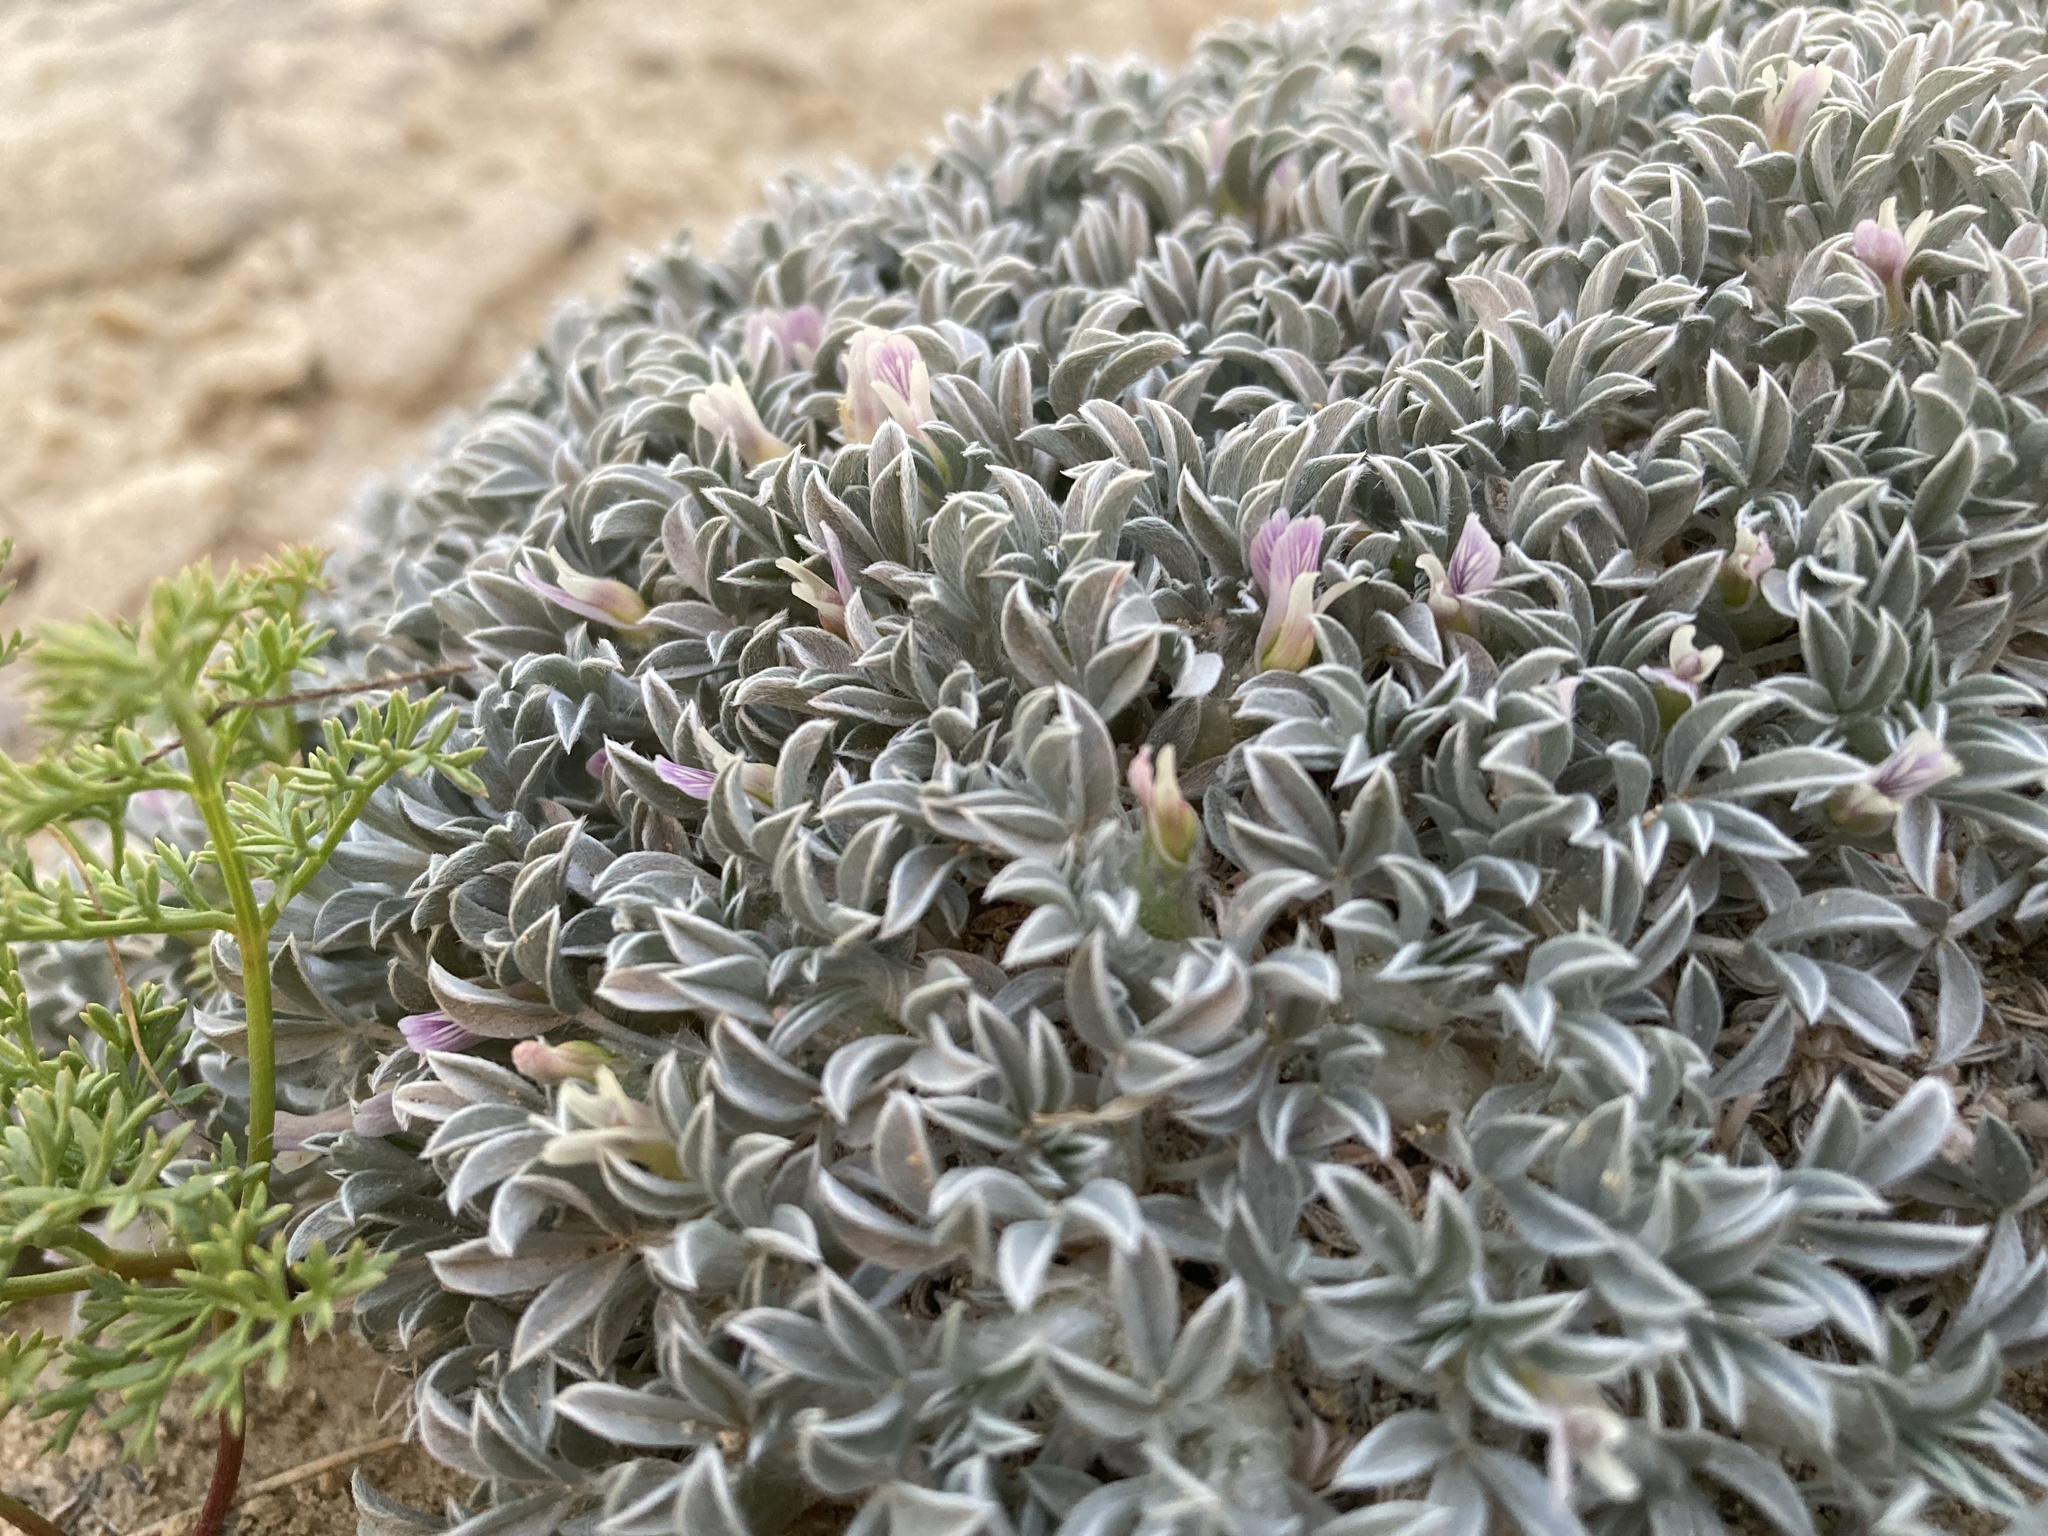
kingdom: Plantae
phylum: Tracheophyta
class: Magnoliopsida
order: Fabales
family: Fabaceae
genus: Astragalus
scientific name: Astragalus hyalinus
